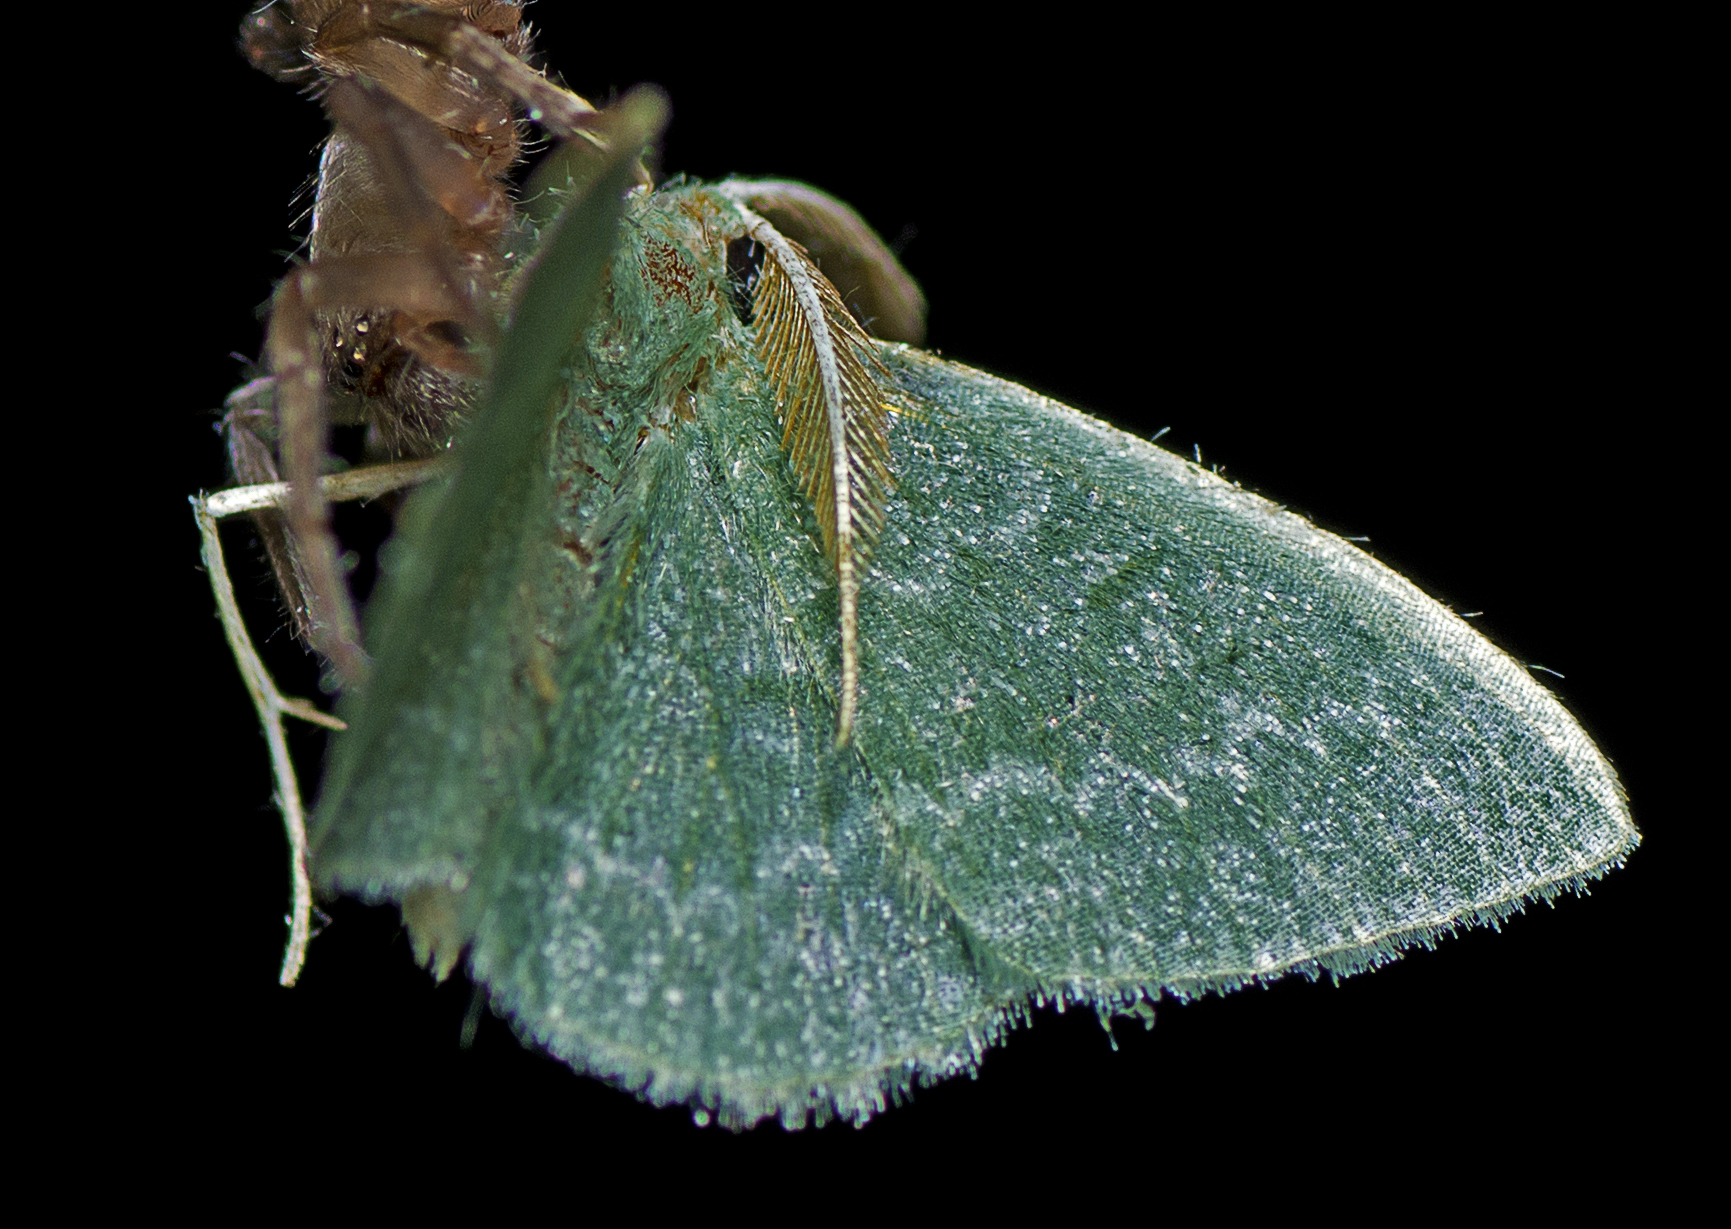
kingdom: Animalia
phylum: Arthropoda
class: Insecta
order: Lepidoptera
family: Geometridae
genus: Chlorocoma
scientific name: Chlorocoma tachypora
